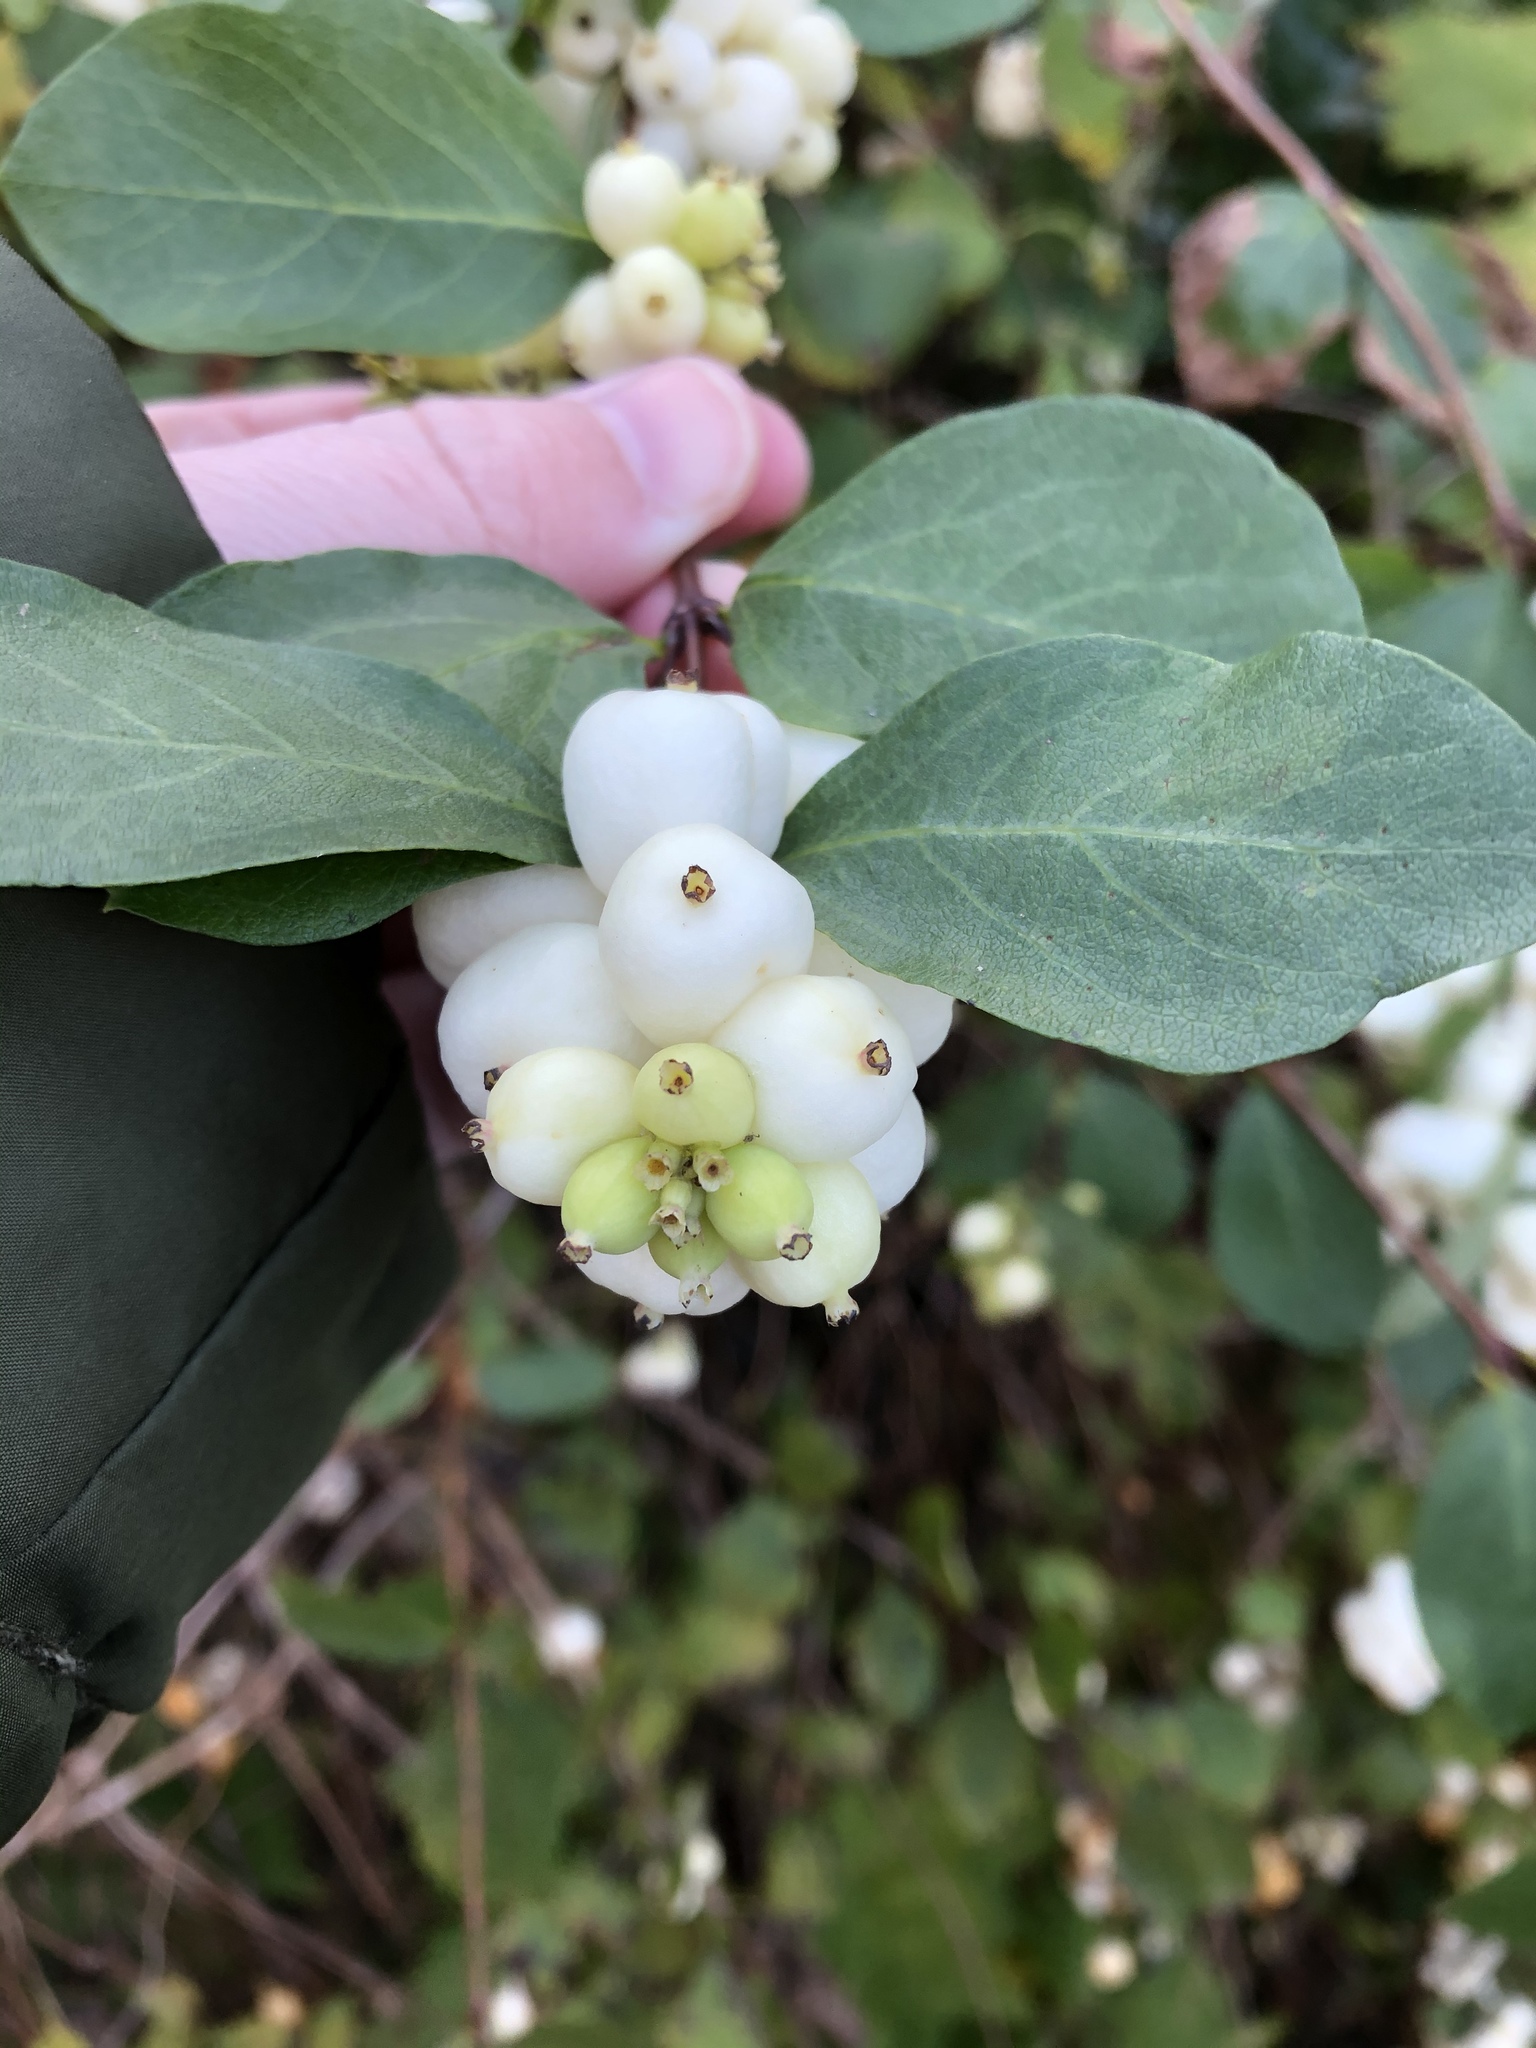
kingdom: Plantae
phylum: Tracheophyta
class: Magnoliopsida
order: Dipsacales
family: Caprifoliaceae
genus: Symphoricarpos
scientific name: Symphoricarpos albus
